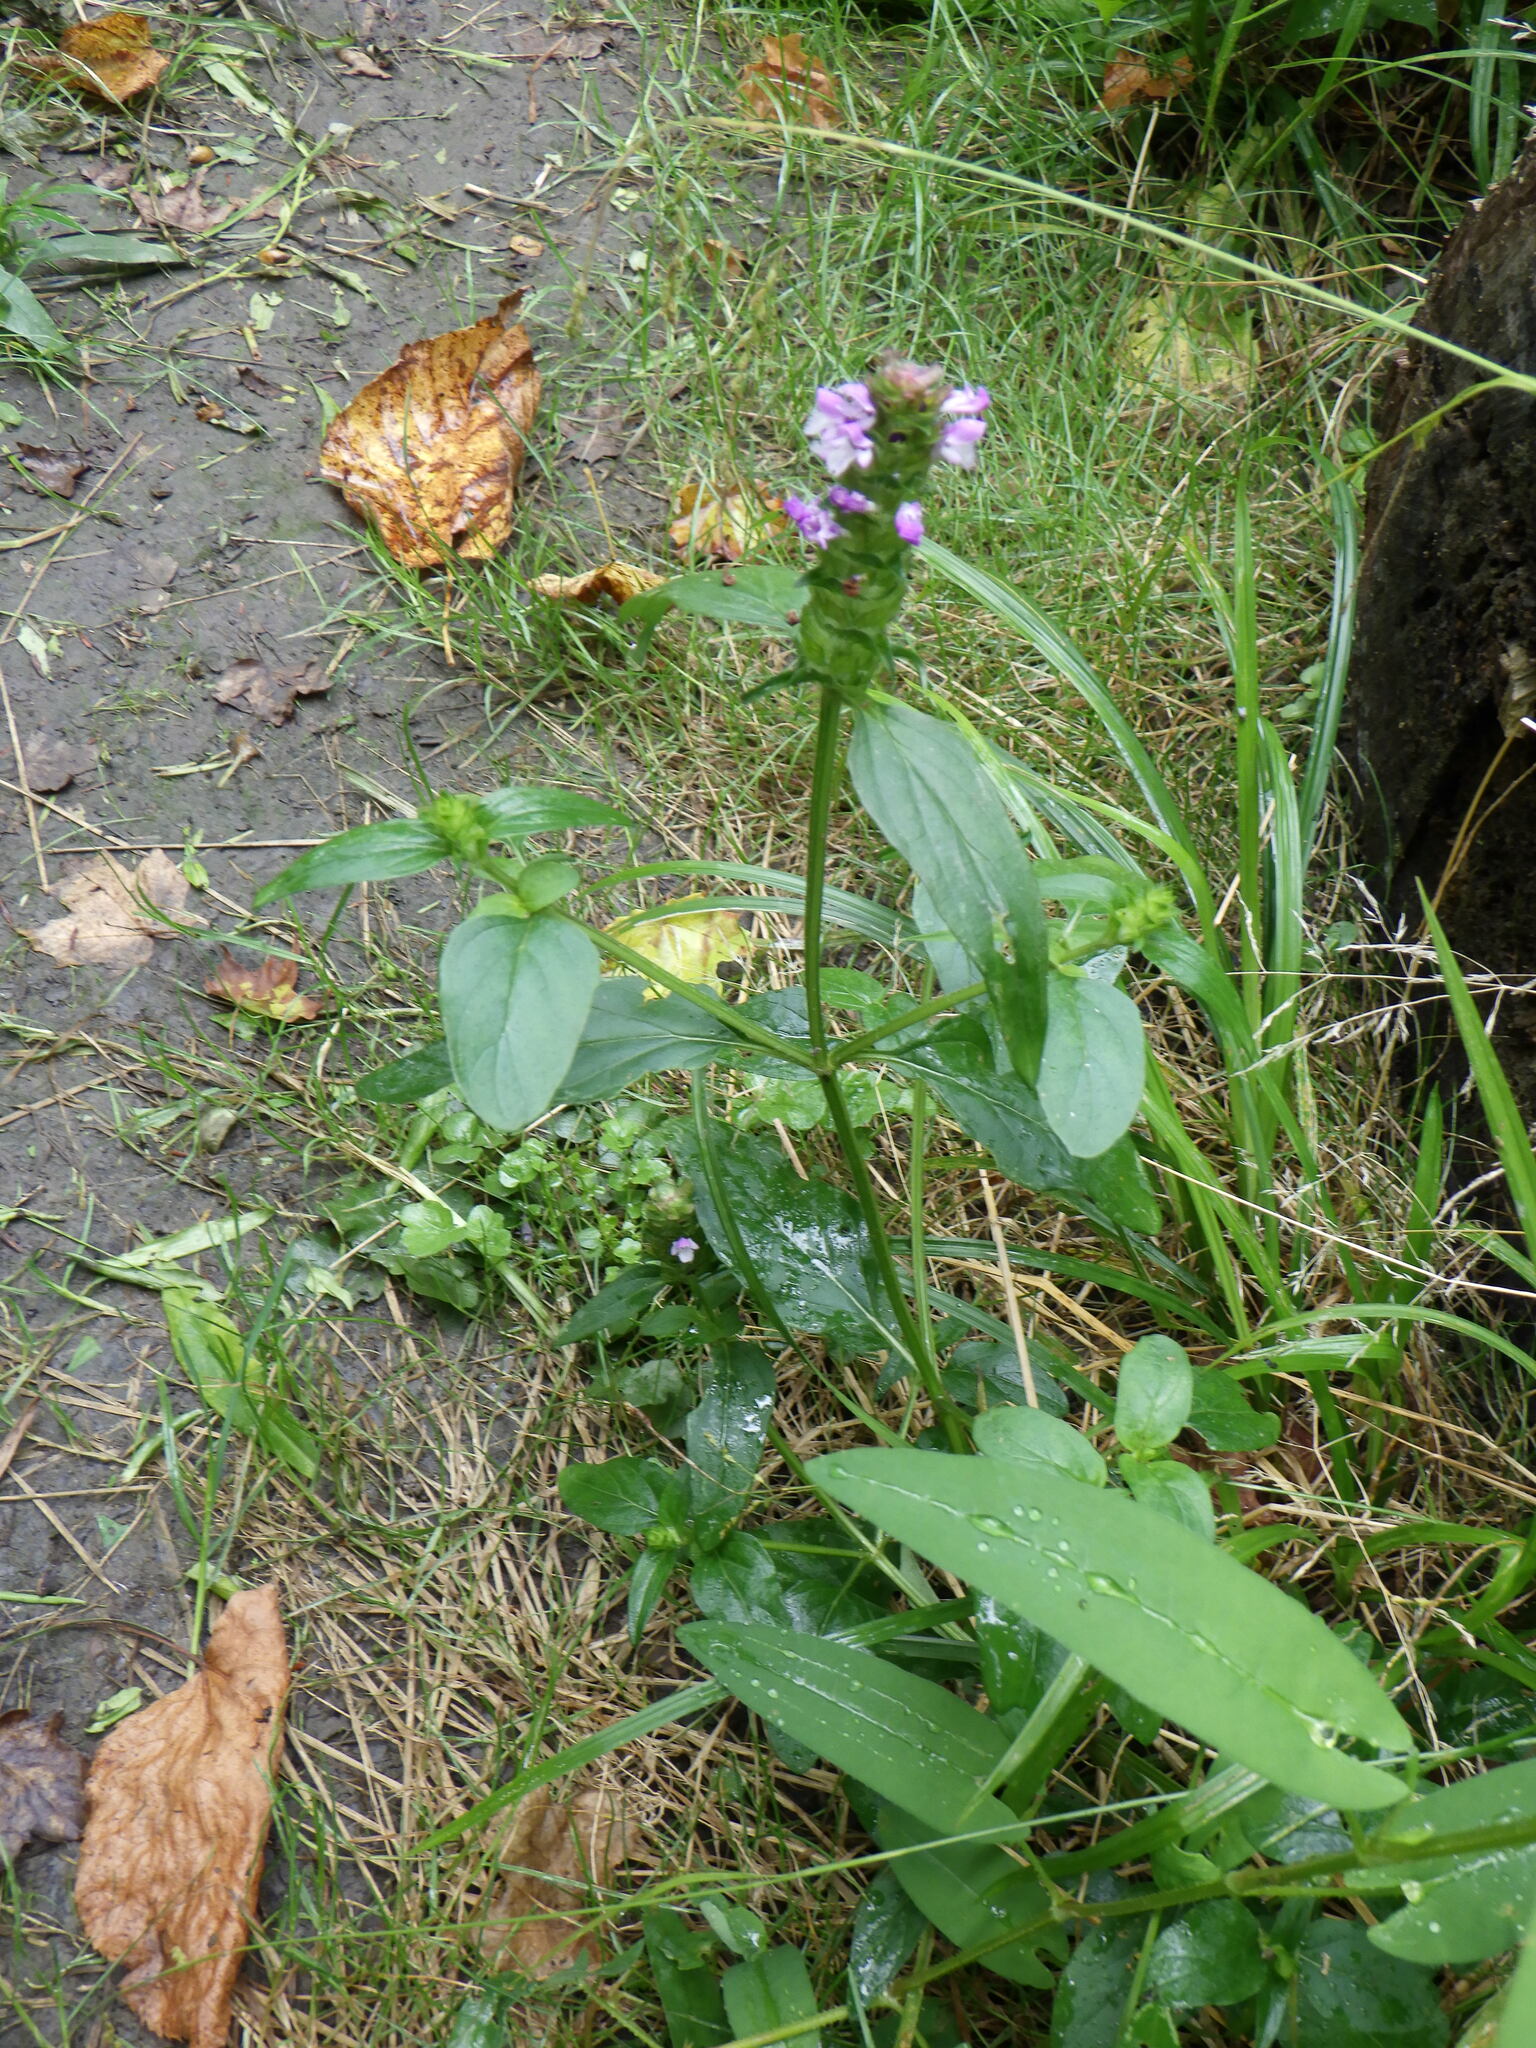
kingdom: Plantae
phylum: Tracheophyta
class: Magnoliopsida
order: Lamiales
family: Lamiaceae
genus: Prunella
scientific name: Prunella vulgaris
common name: Heal-all
